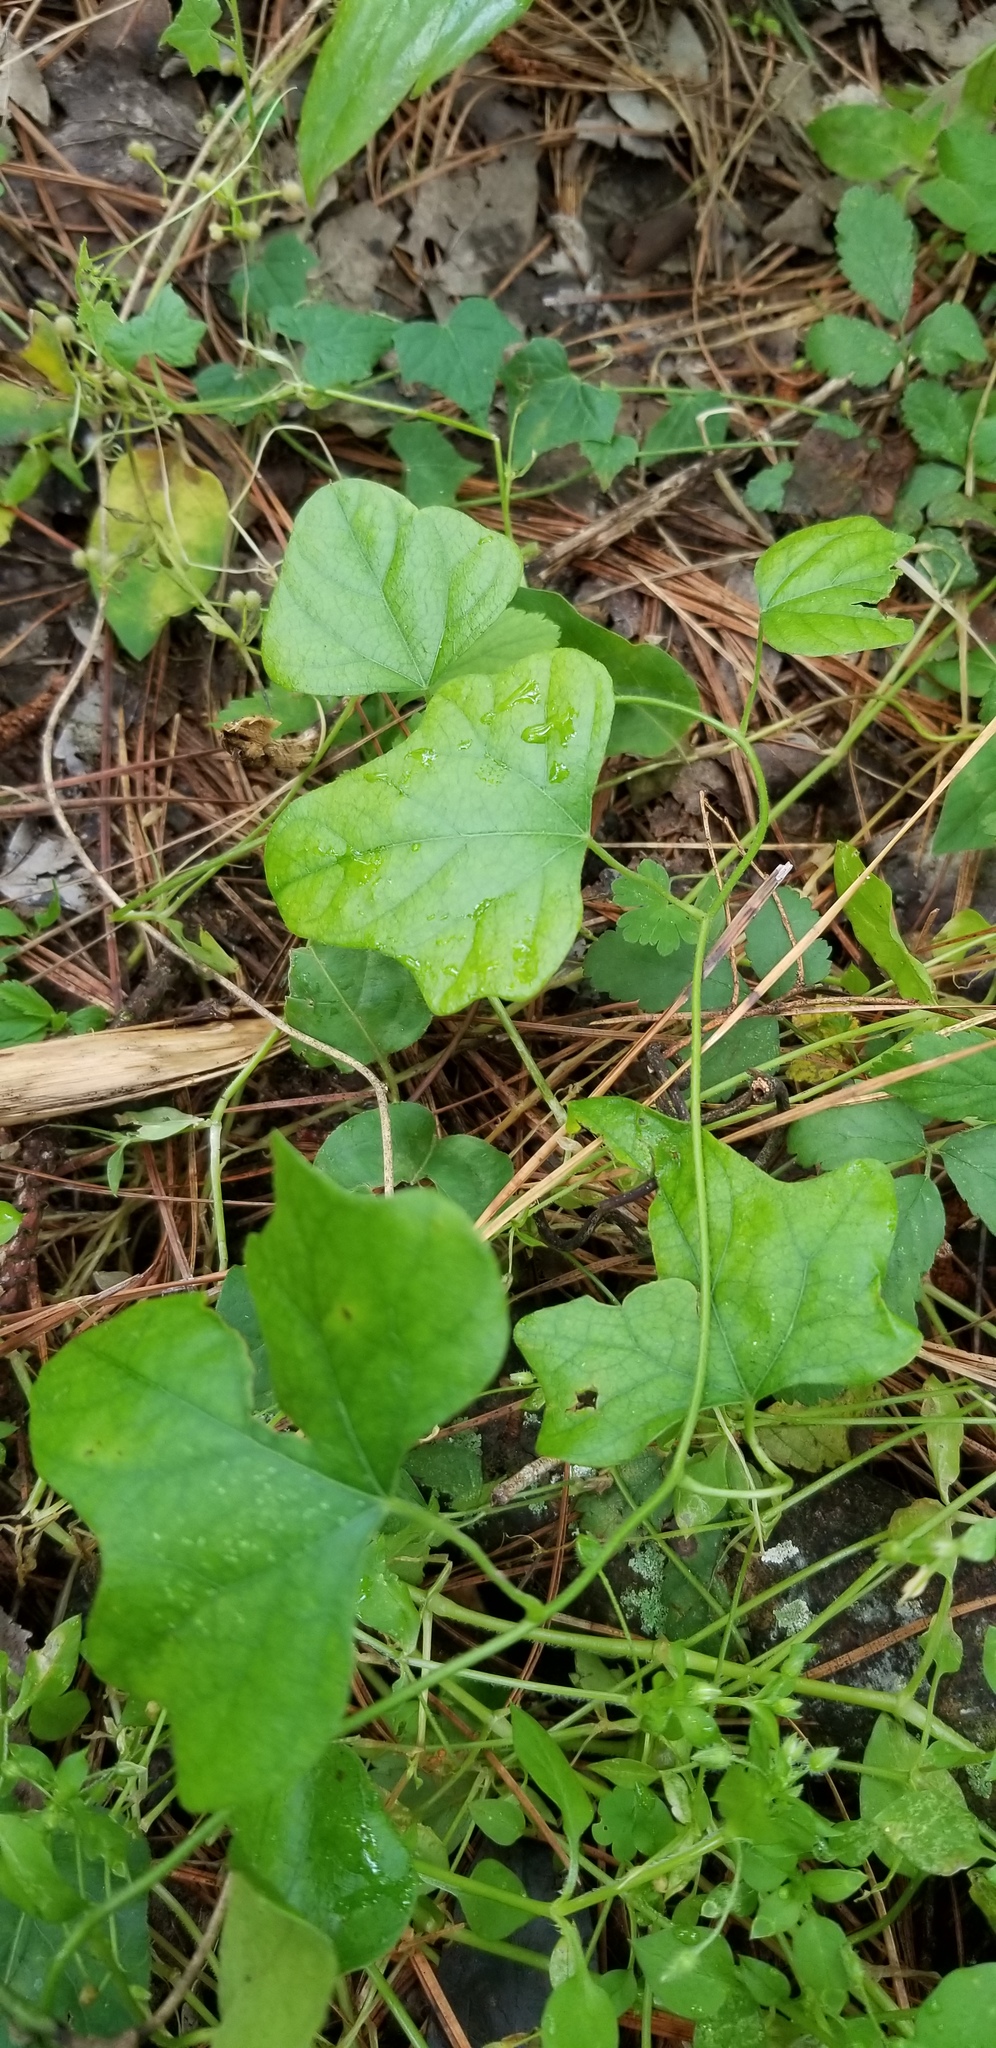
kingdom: Plantae
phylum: Tracheophyta
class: Magnoliopsida
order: Ranunculales
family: Menispermaceae
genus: Cocculus
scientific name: Cocculus carolinus
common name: Carolina moonseed
